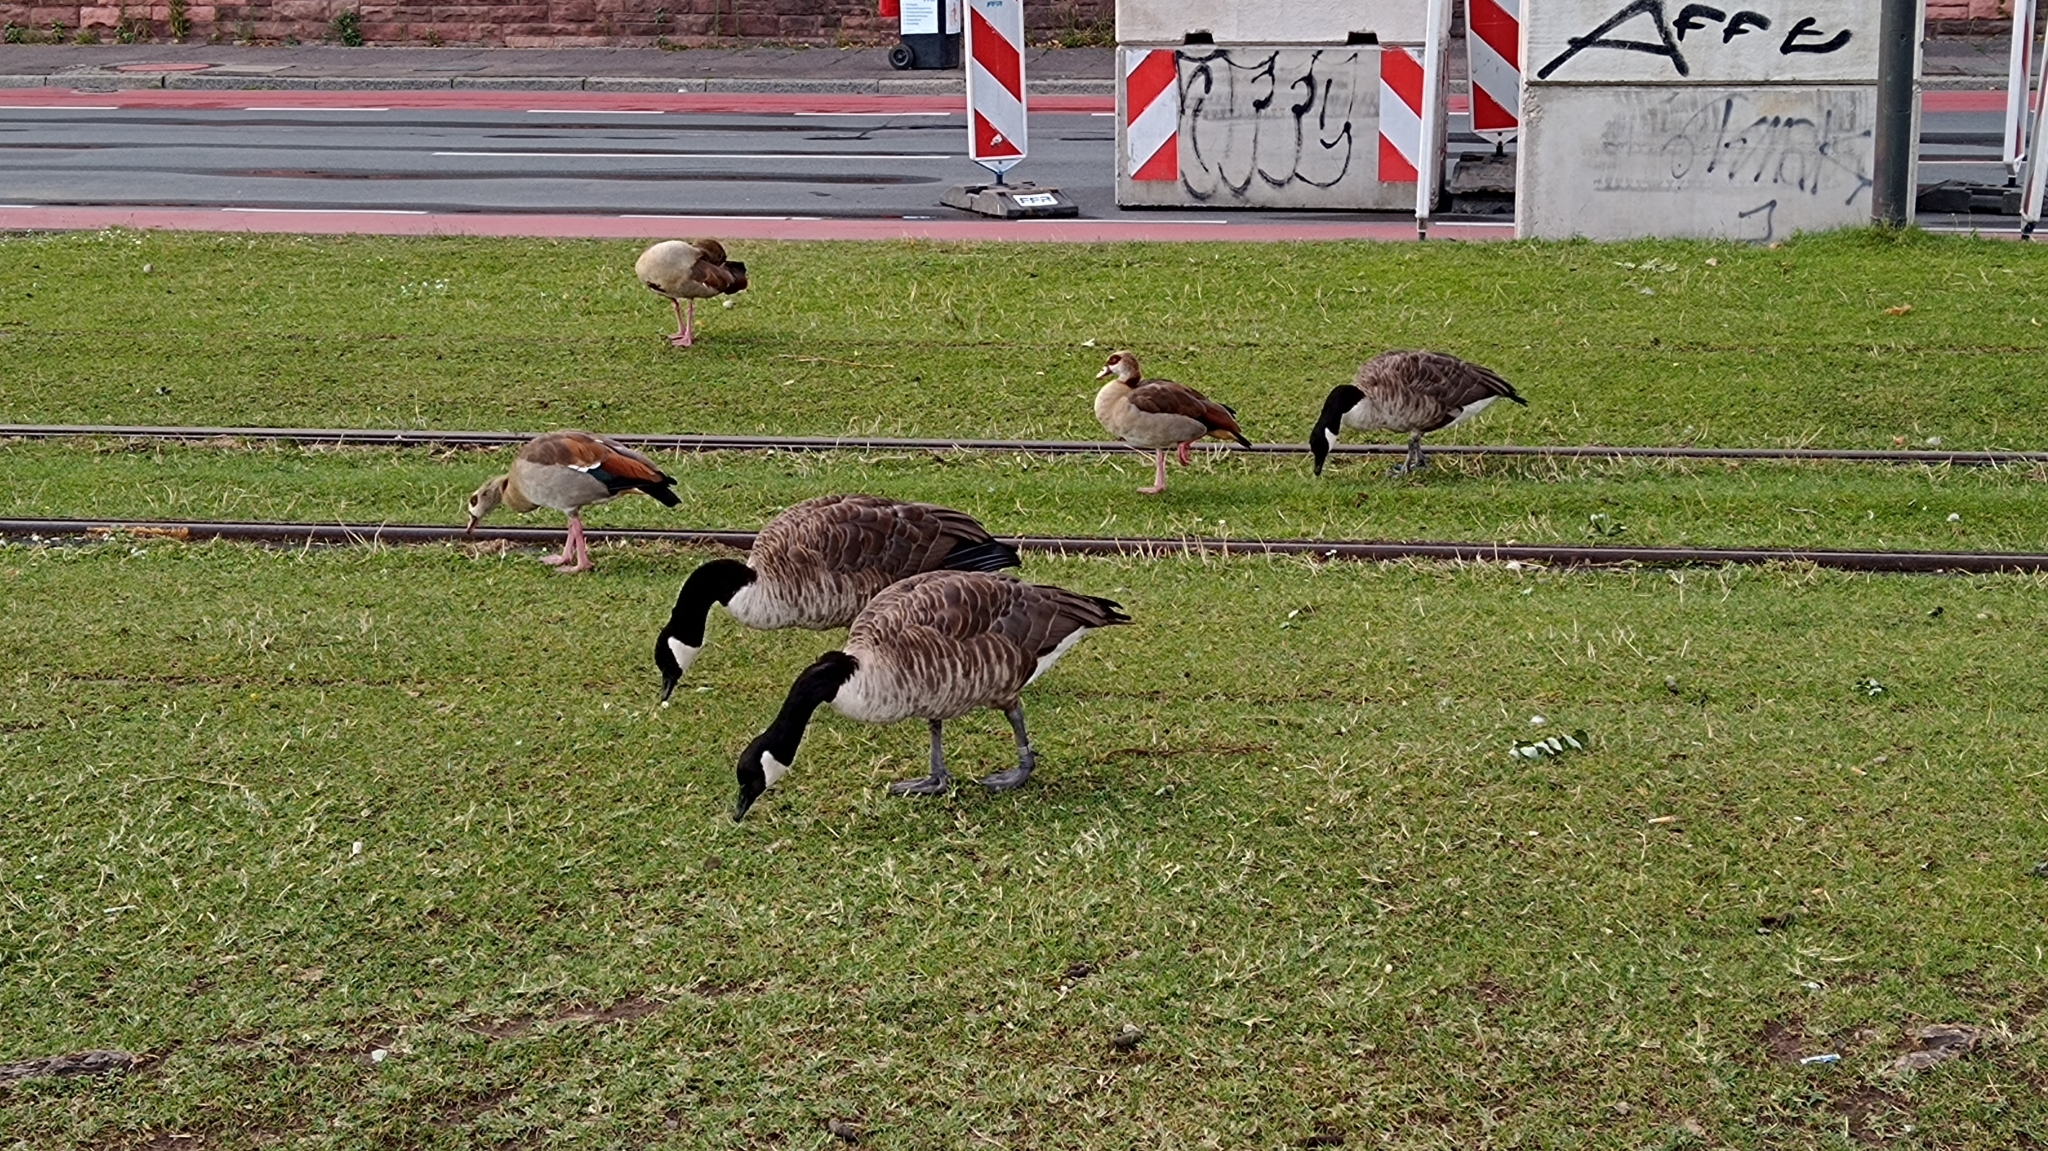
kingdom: Animalia
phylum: Chordata
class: Aves
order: Anseriformes
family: Anatidae
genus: Alopochen
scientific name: Alopochen aegyptiaca
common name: Egyptian goose
